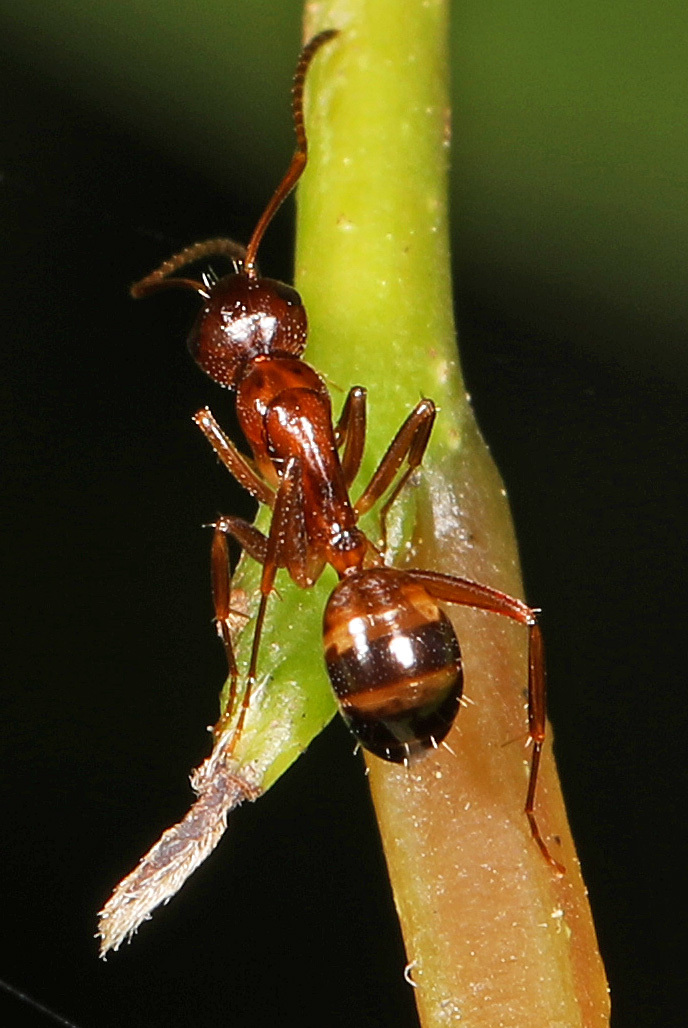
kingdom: Animalia
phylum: Arthropoda
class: Insecta
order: Hymenoptera
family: Formicidae
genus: Camponotus
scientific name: Camponotus subbarbatus
